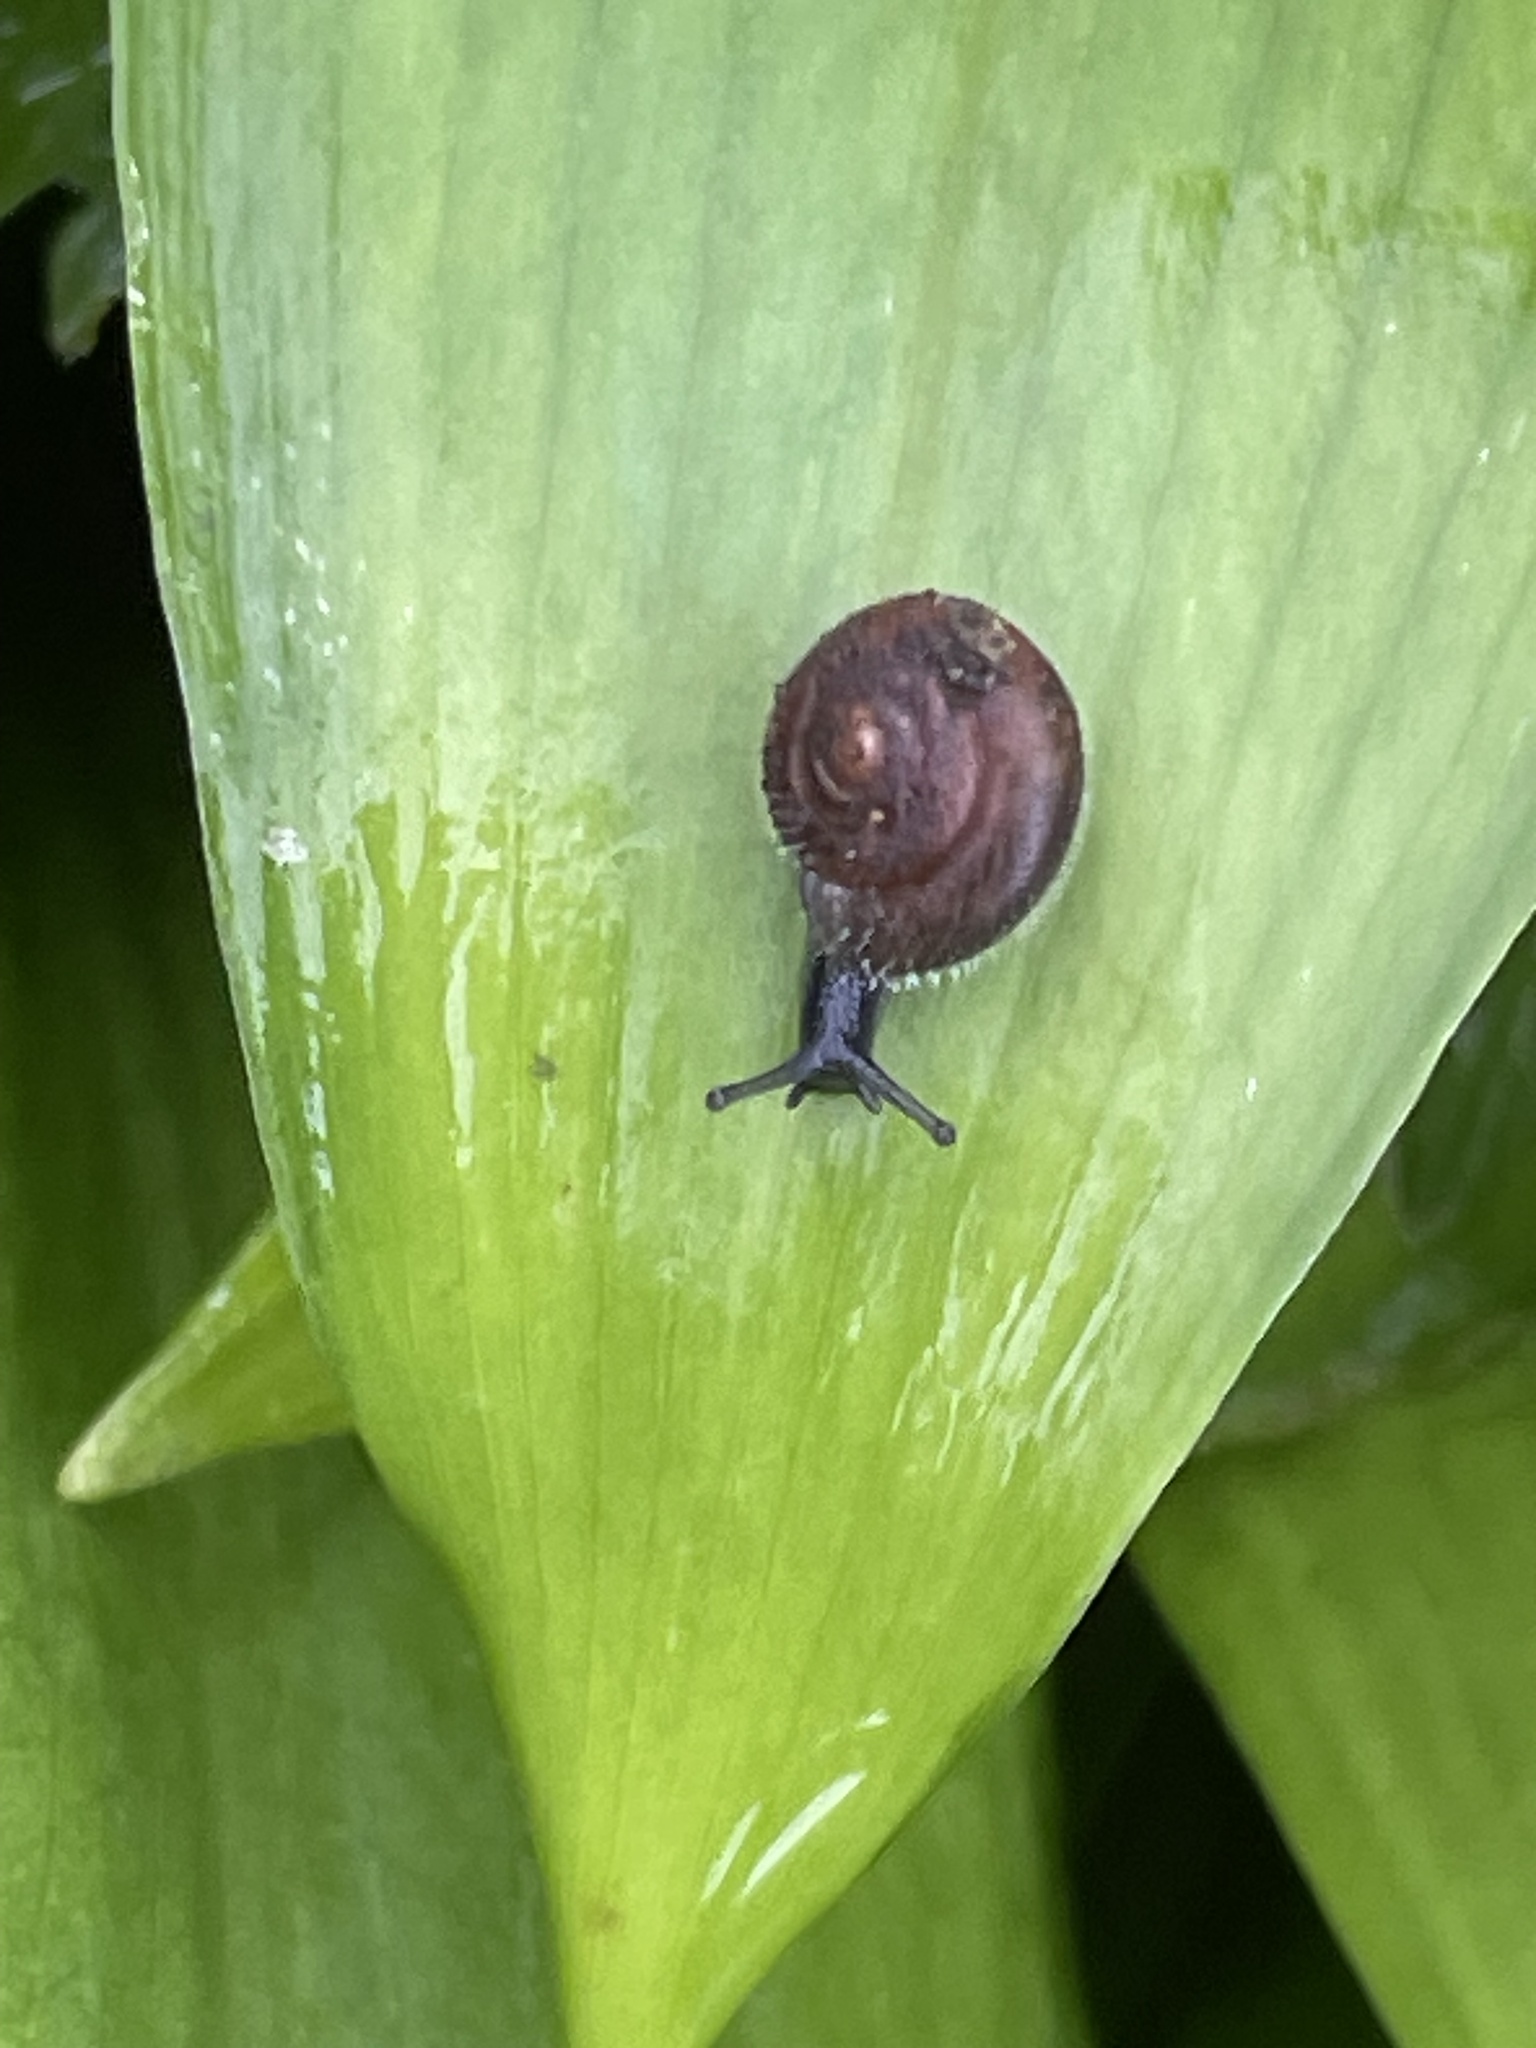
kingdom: Animalia
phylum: Mollusca
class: Gastropoda
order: Stylommatophora
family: Hygromiidae
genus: Trochulus
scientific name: Trochulus hispidus
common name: Hairy snail
